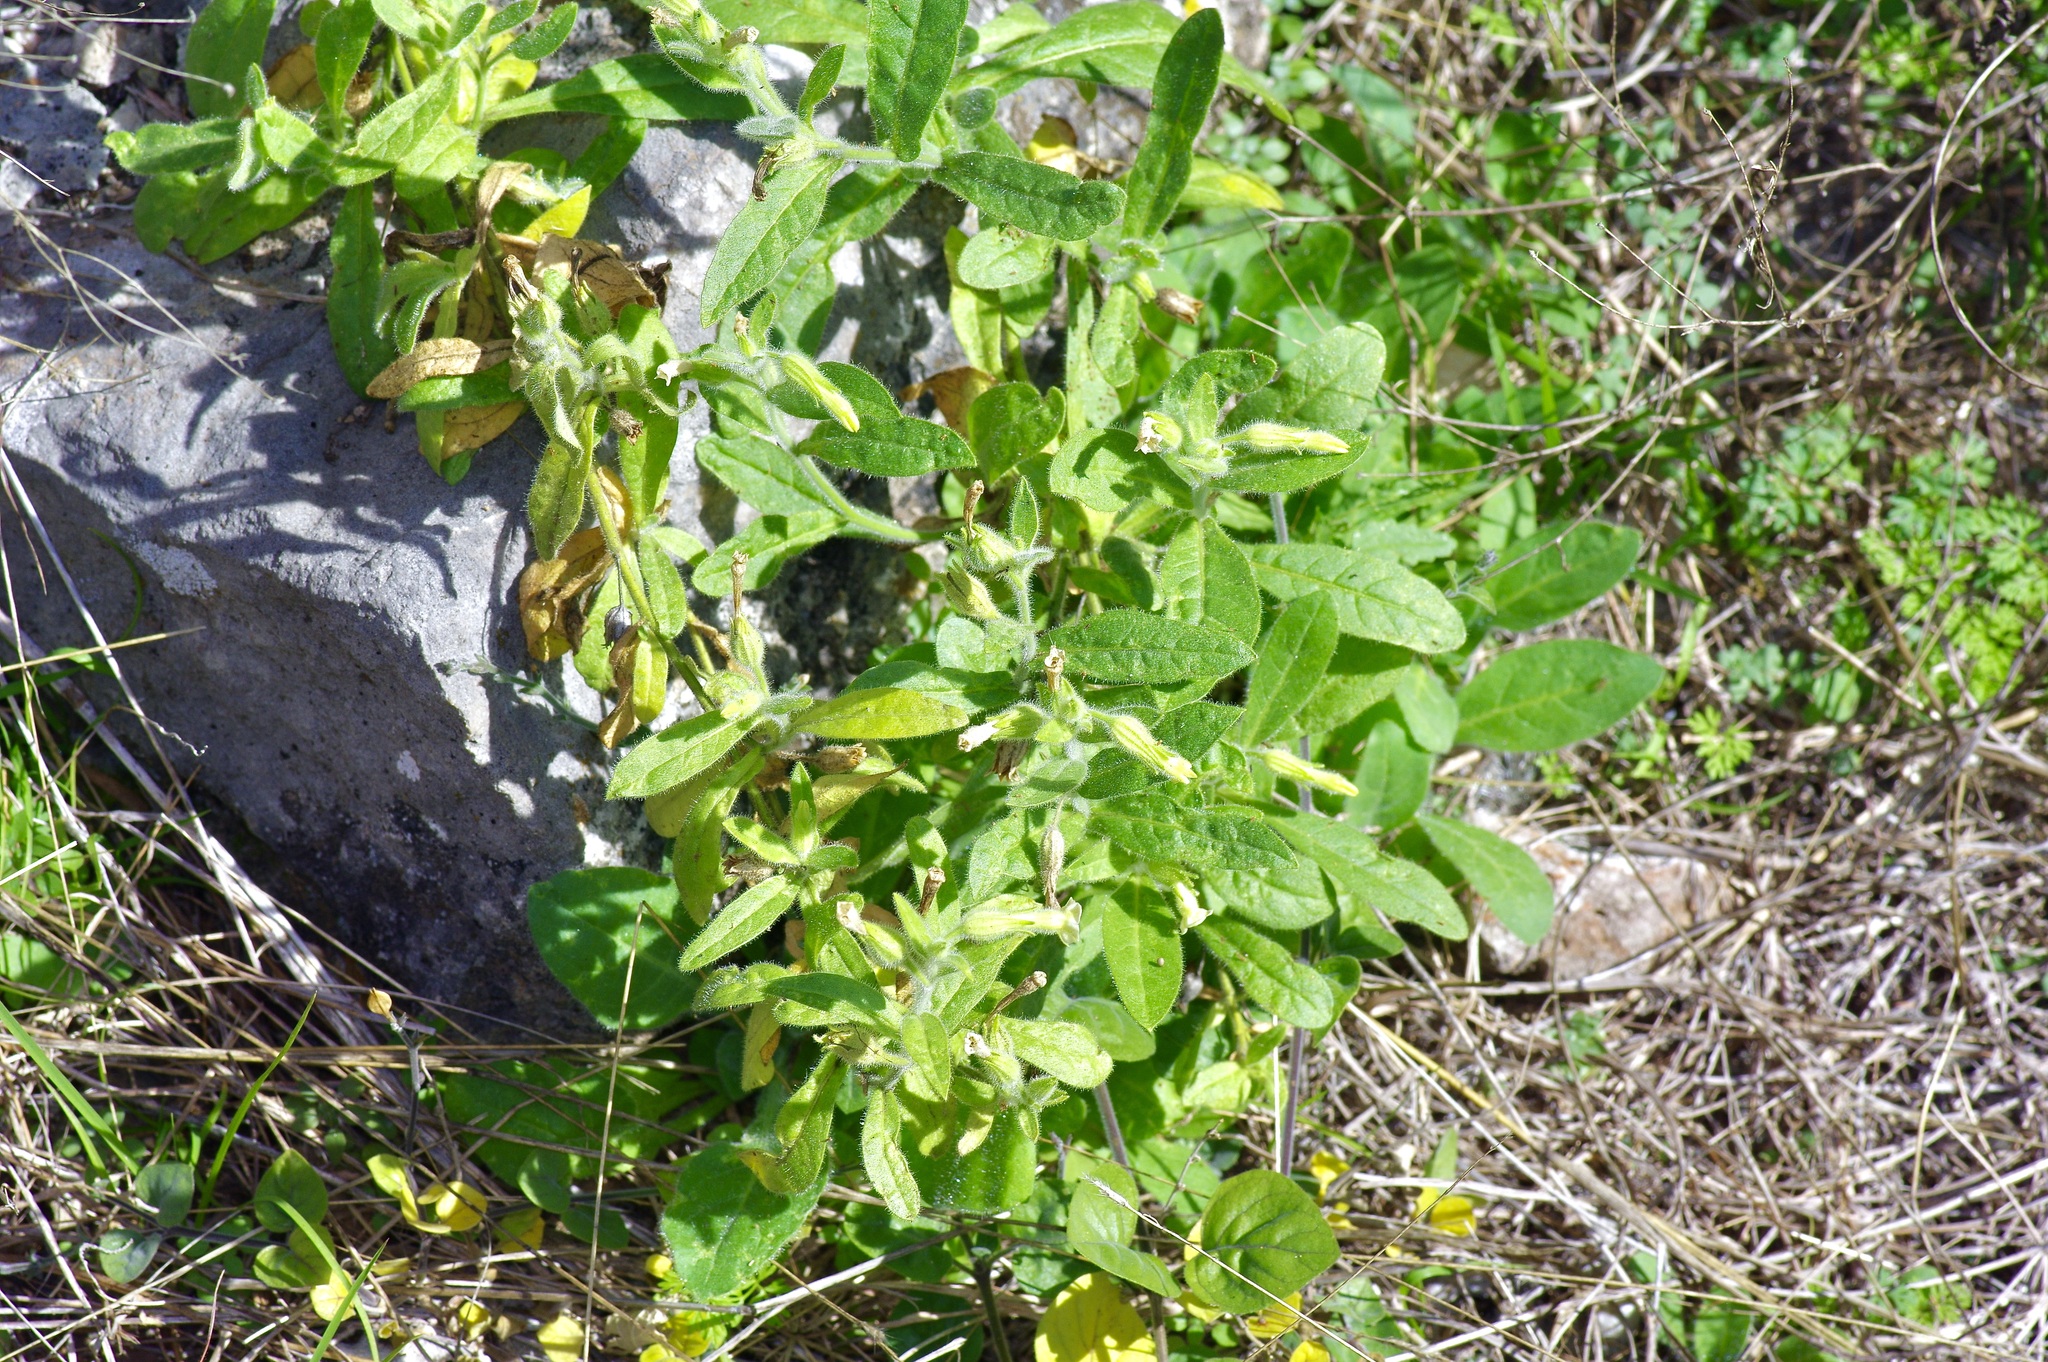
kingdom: Plantae
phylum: Tracheophyta
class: Magnoliopsida
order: Solanales
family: Solanaceae
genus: Nicotiana
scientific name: Nicotiana obtusifolia
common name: Desert tobacco
